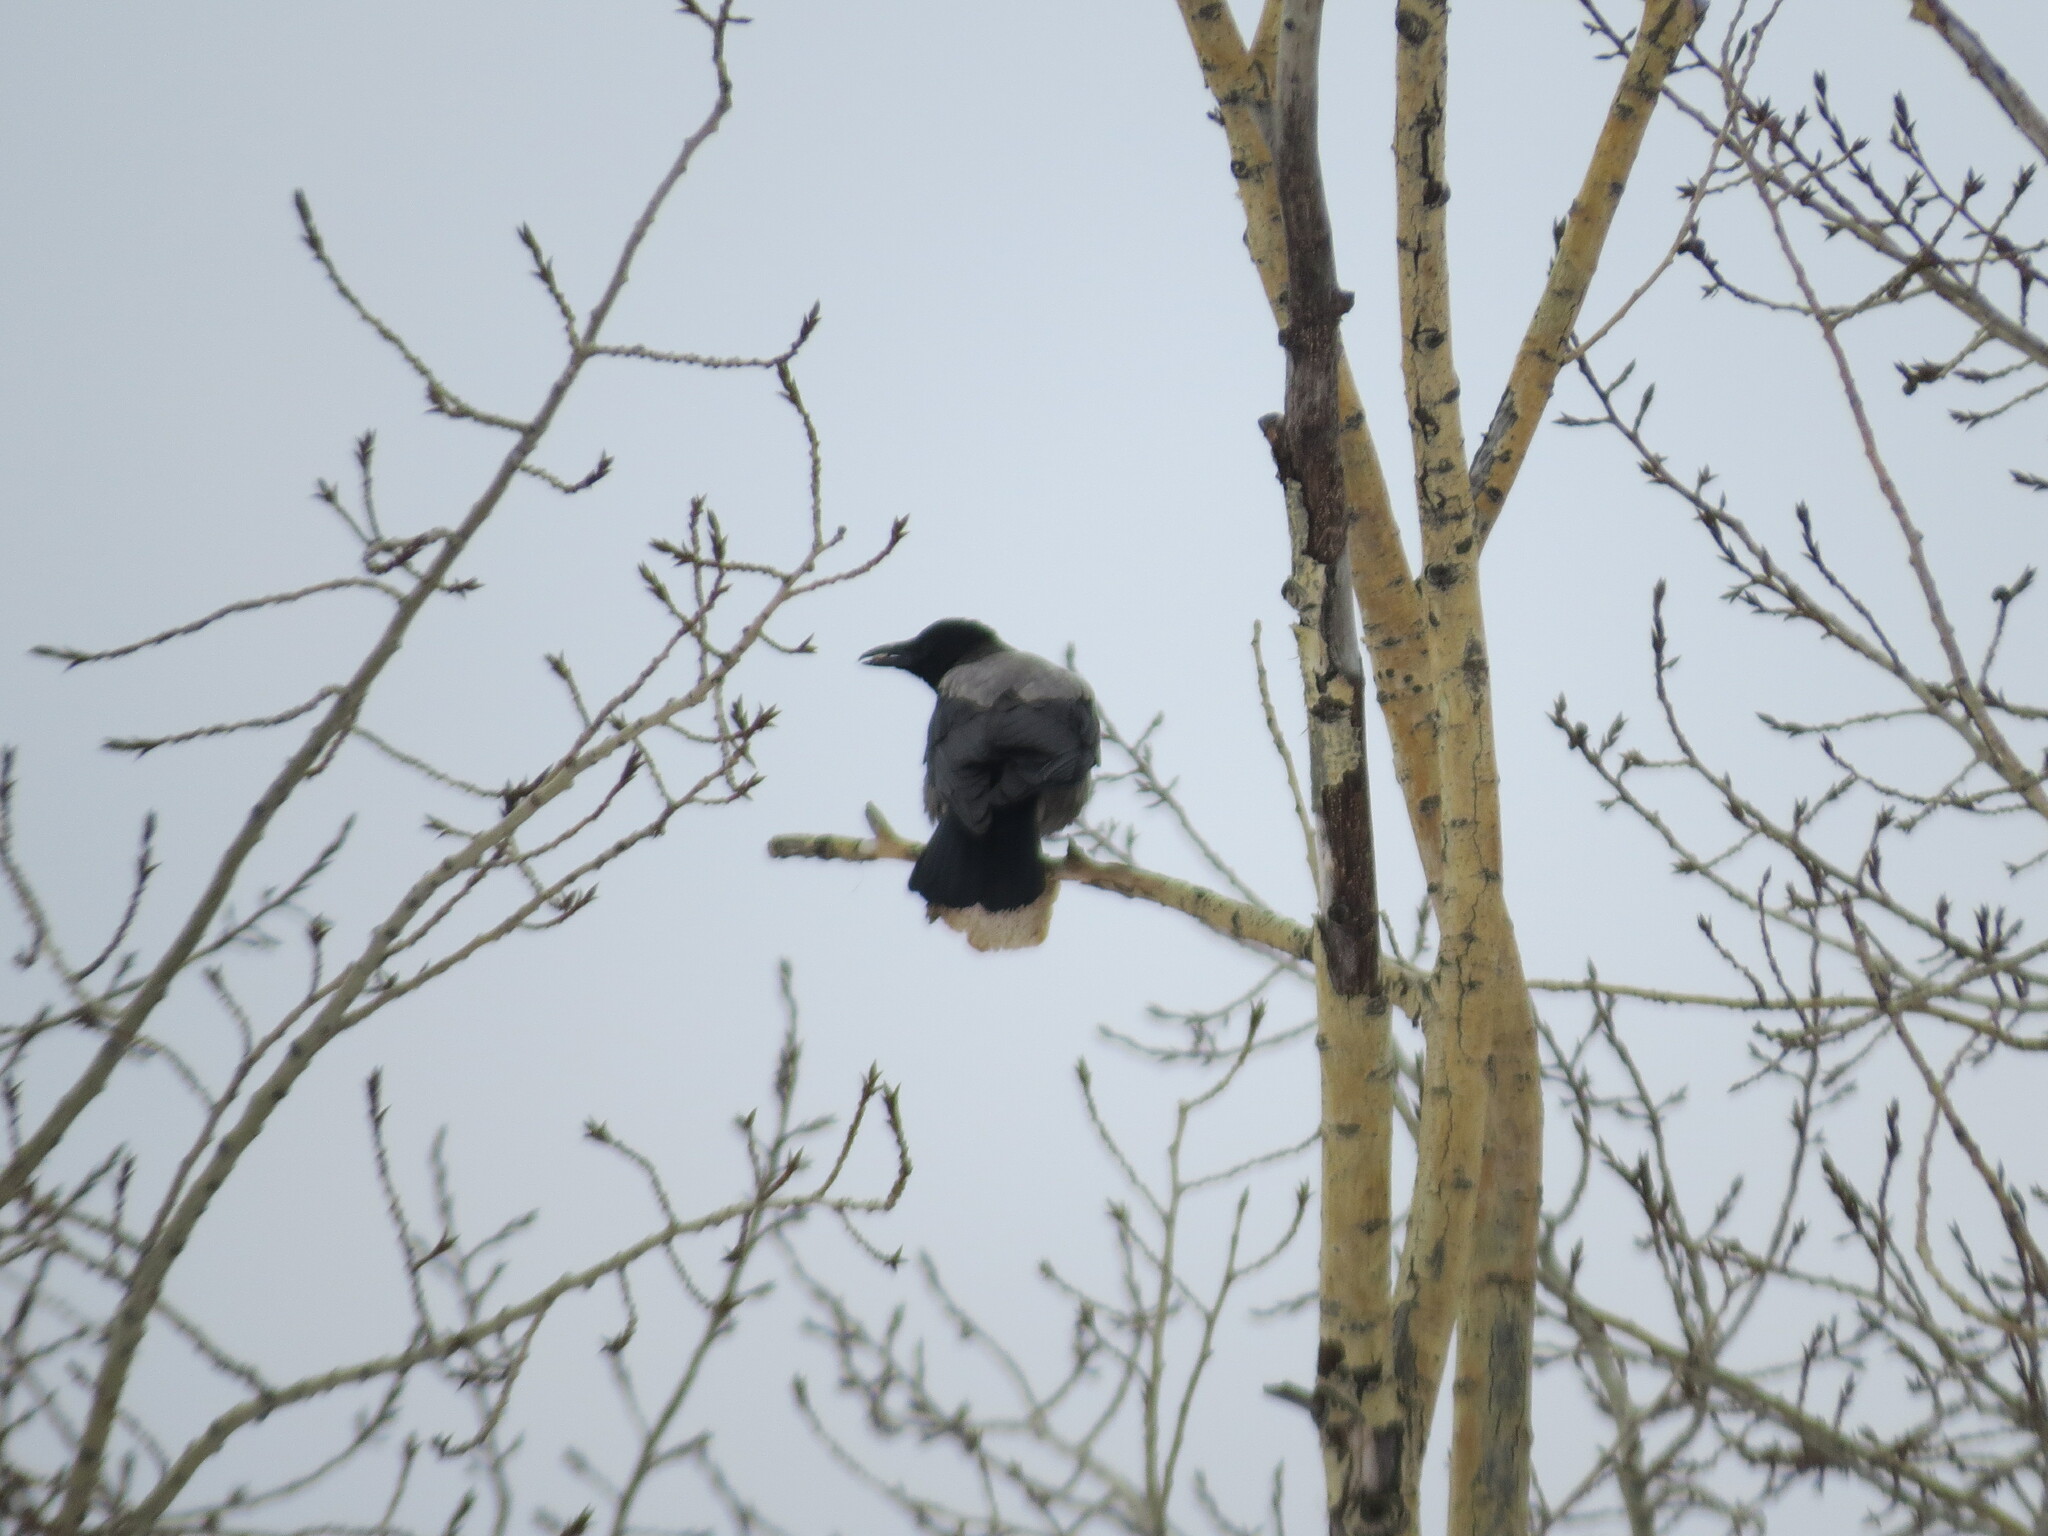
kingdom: Animalia
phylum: Chordata
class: Aves
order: Passeriformes
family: Corvidae
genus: Corvus
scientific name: Corvus cornix
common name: Hooded crow
